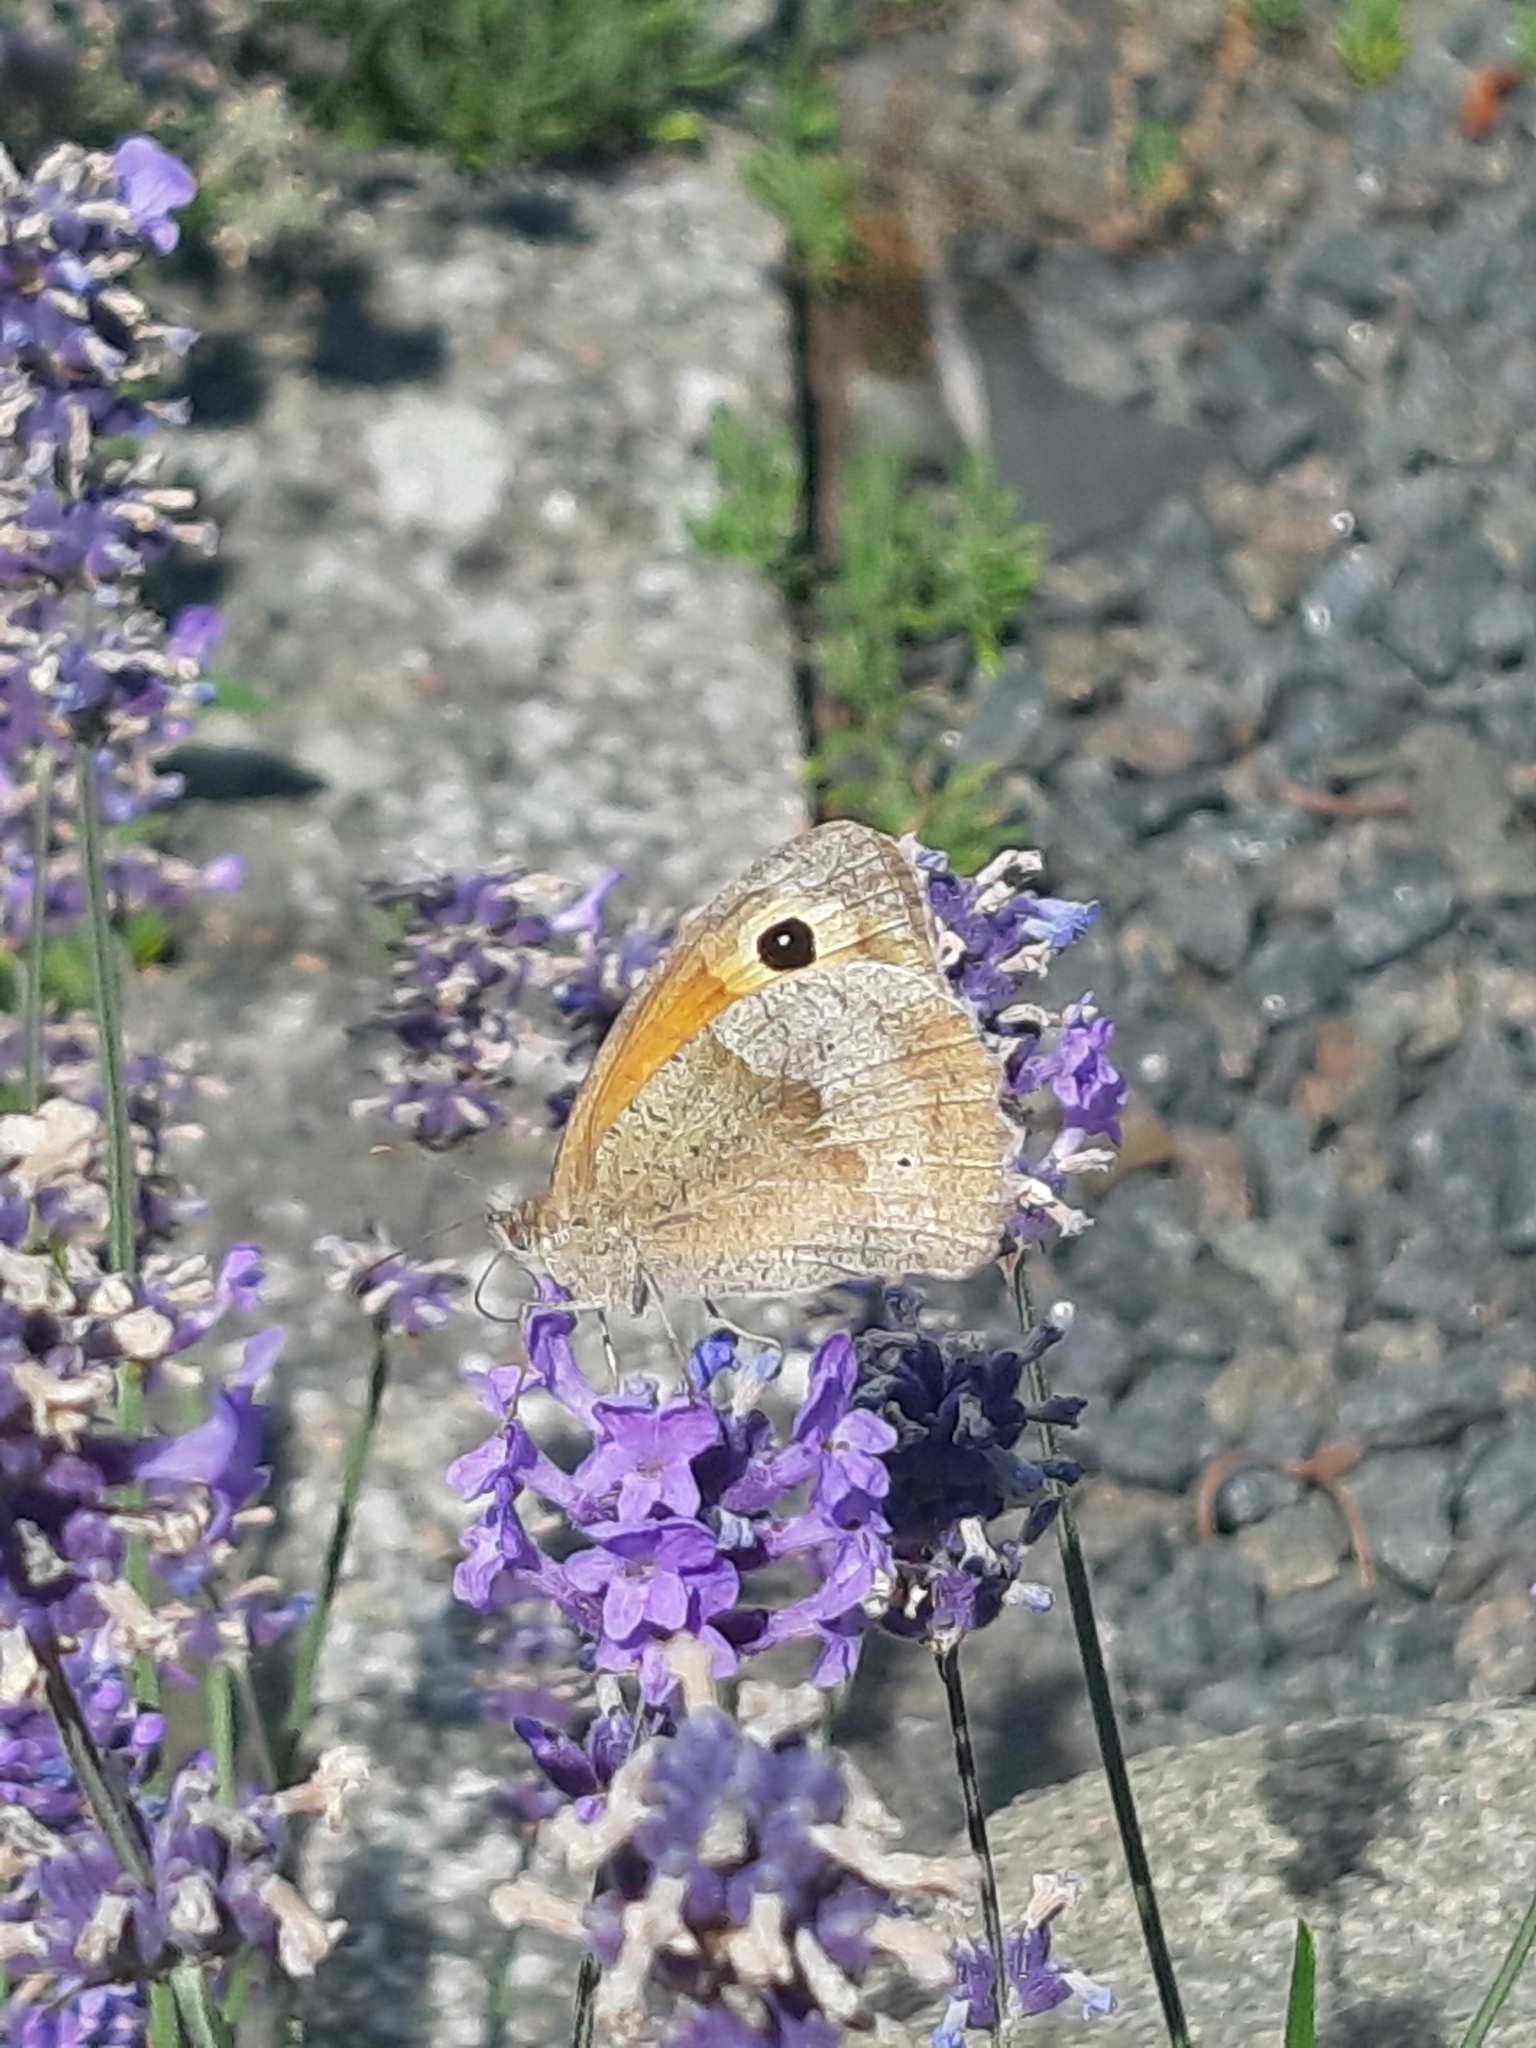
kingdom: Animalia
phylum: Arthropoda
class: Insecta
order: Lepidoptera
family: Nymphalidae
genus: Maniola
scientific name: Maniola jurtina
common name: Meadow brown
